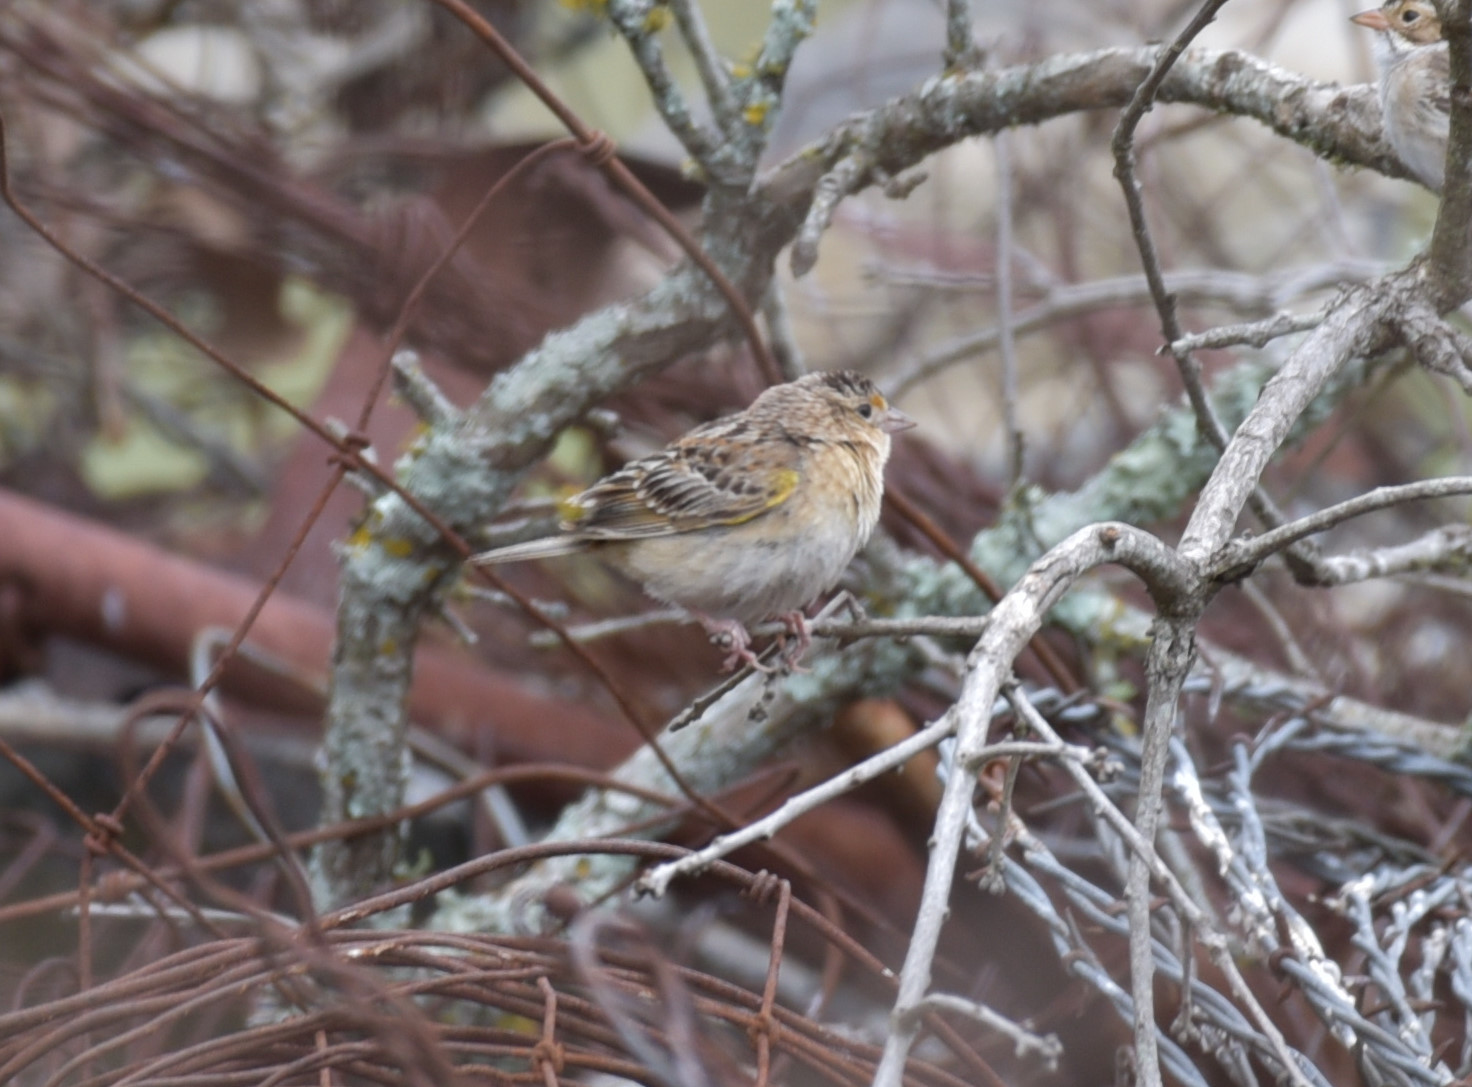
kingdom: Animalia
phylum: Chordata
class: Aves
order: Passeriformes
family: Passerellidae
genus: Ammodramus
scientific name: Ammodramus savannarum
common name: Grasshopper sparrow
